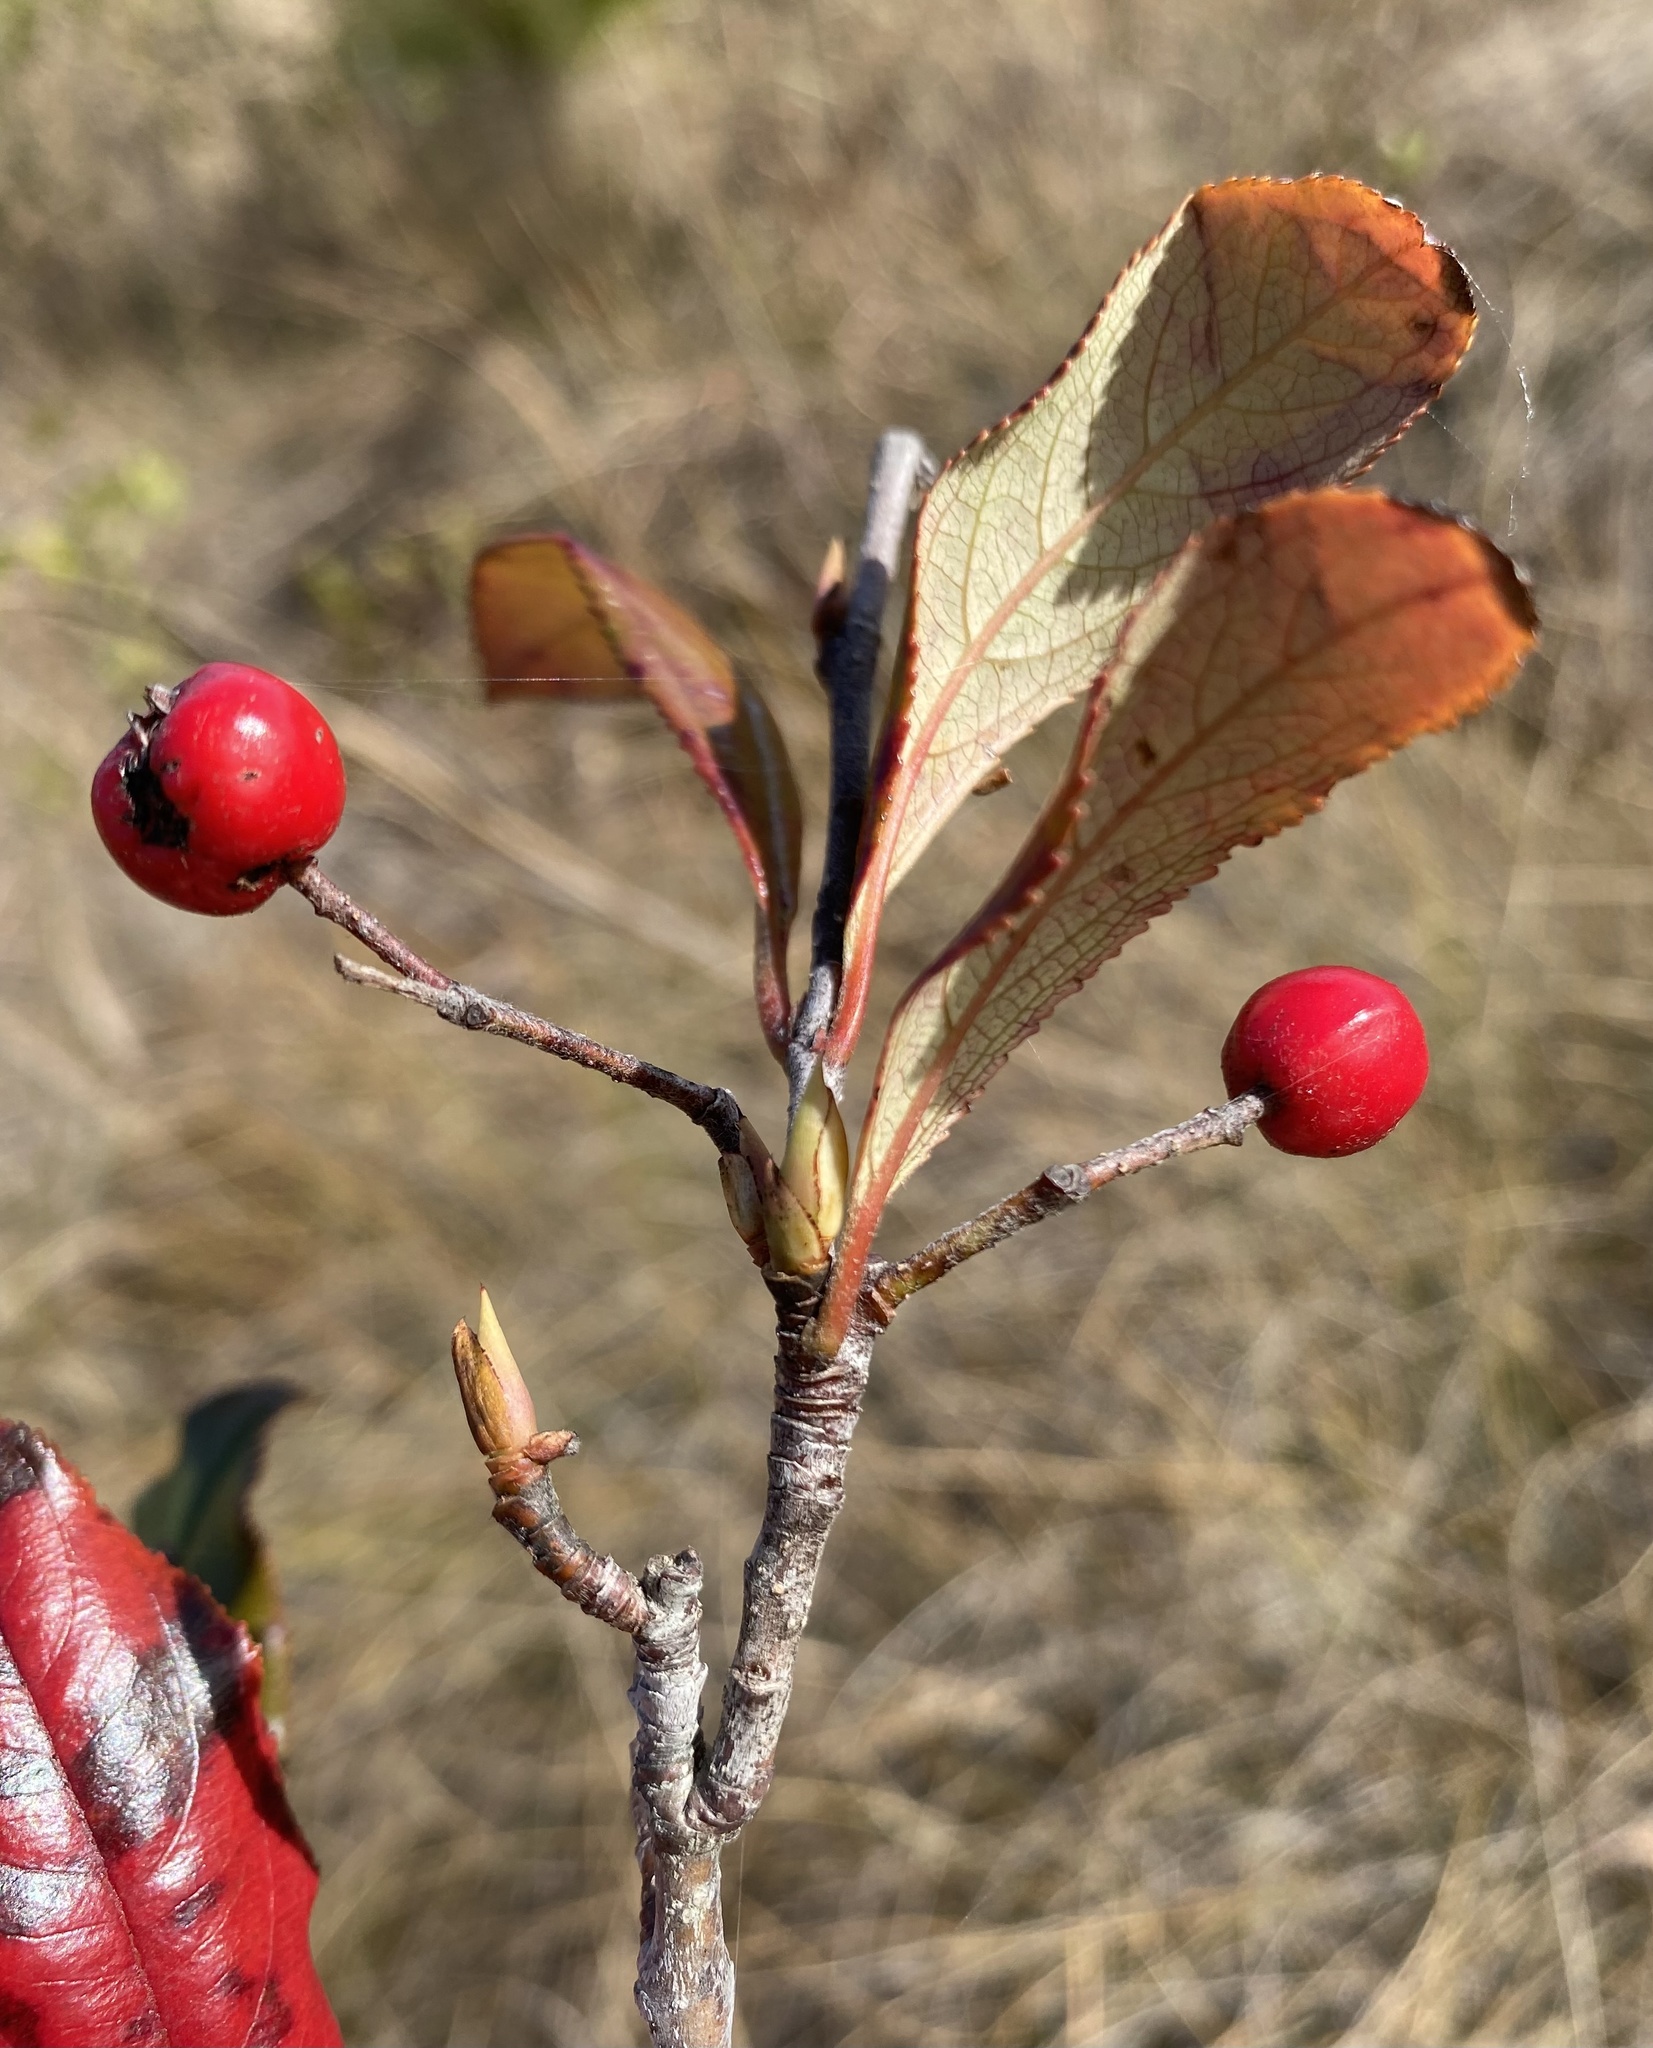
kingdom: Plantae
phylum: Tracheophyta
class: Magnoliopsida
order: Rosales
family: Rosaceae
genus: Aronia
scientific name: Aronia arbutifolia
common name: Red chokeberry
